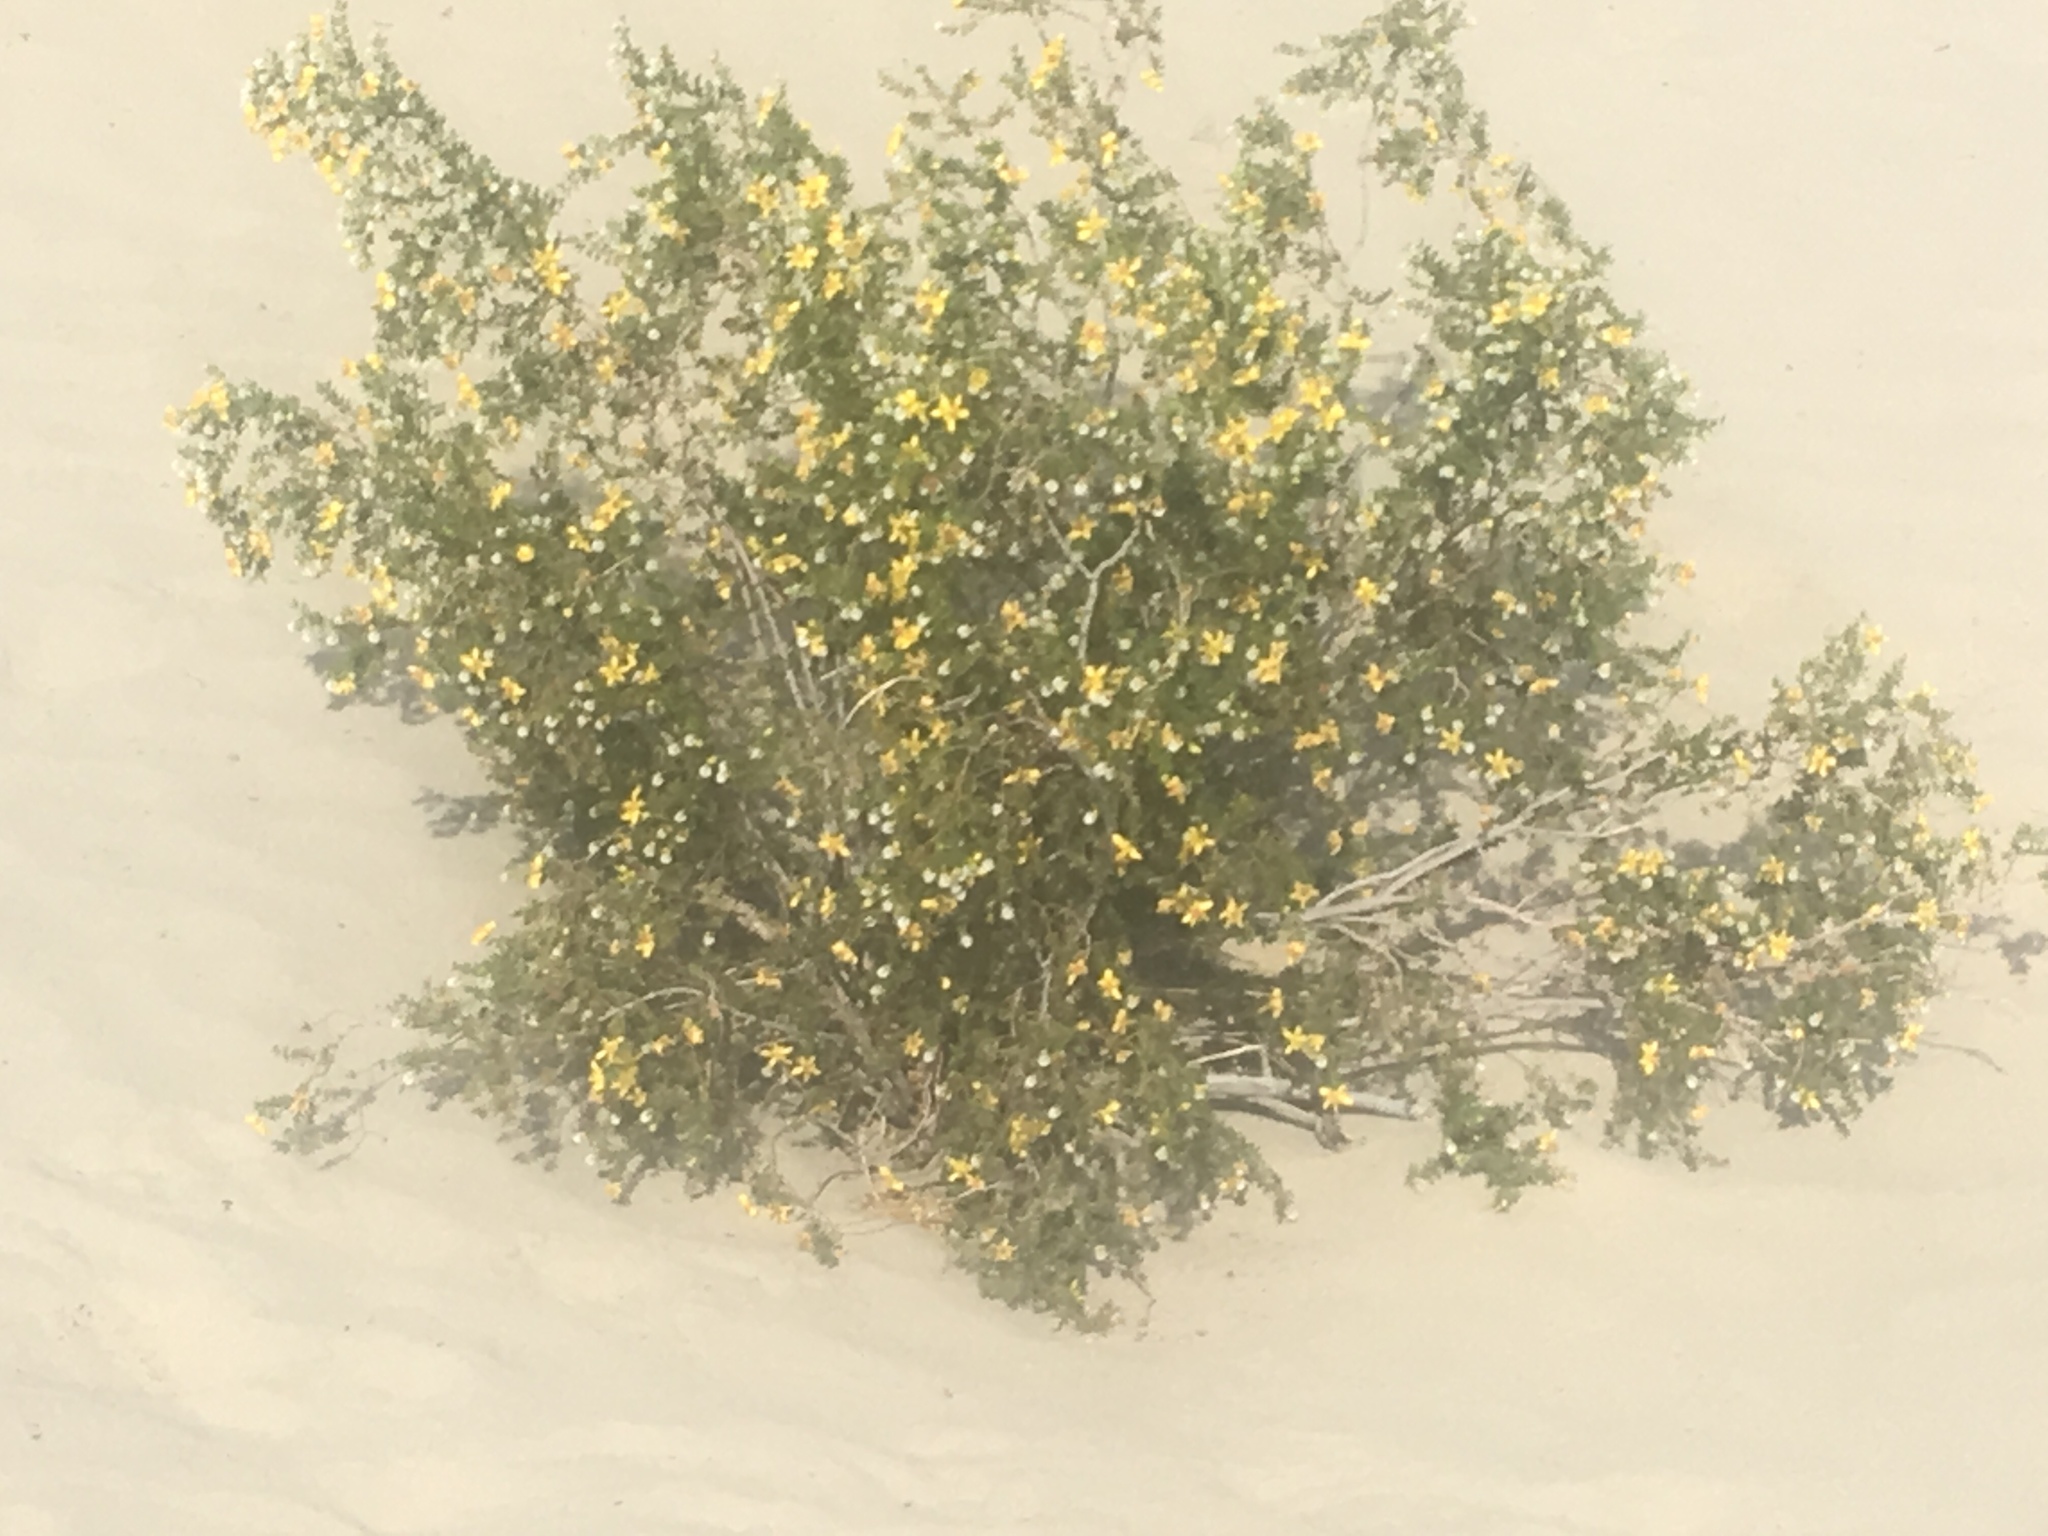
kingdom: Plantae
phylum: Tracheophyta
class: Magnoliopsida
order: Zygophyllales
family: Zygophyllaceae
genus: Larrea
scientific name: Larrea tridentata
